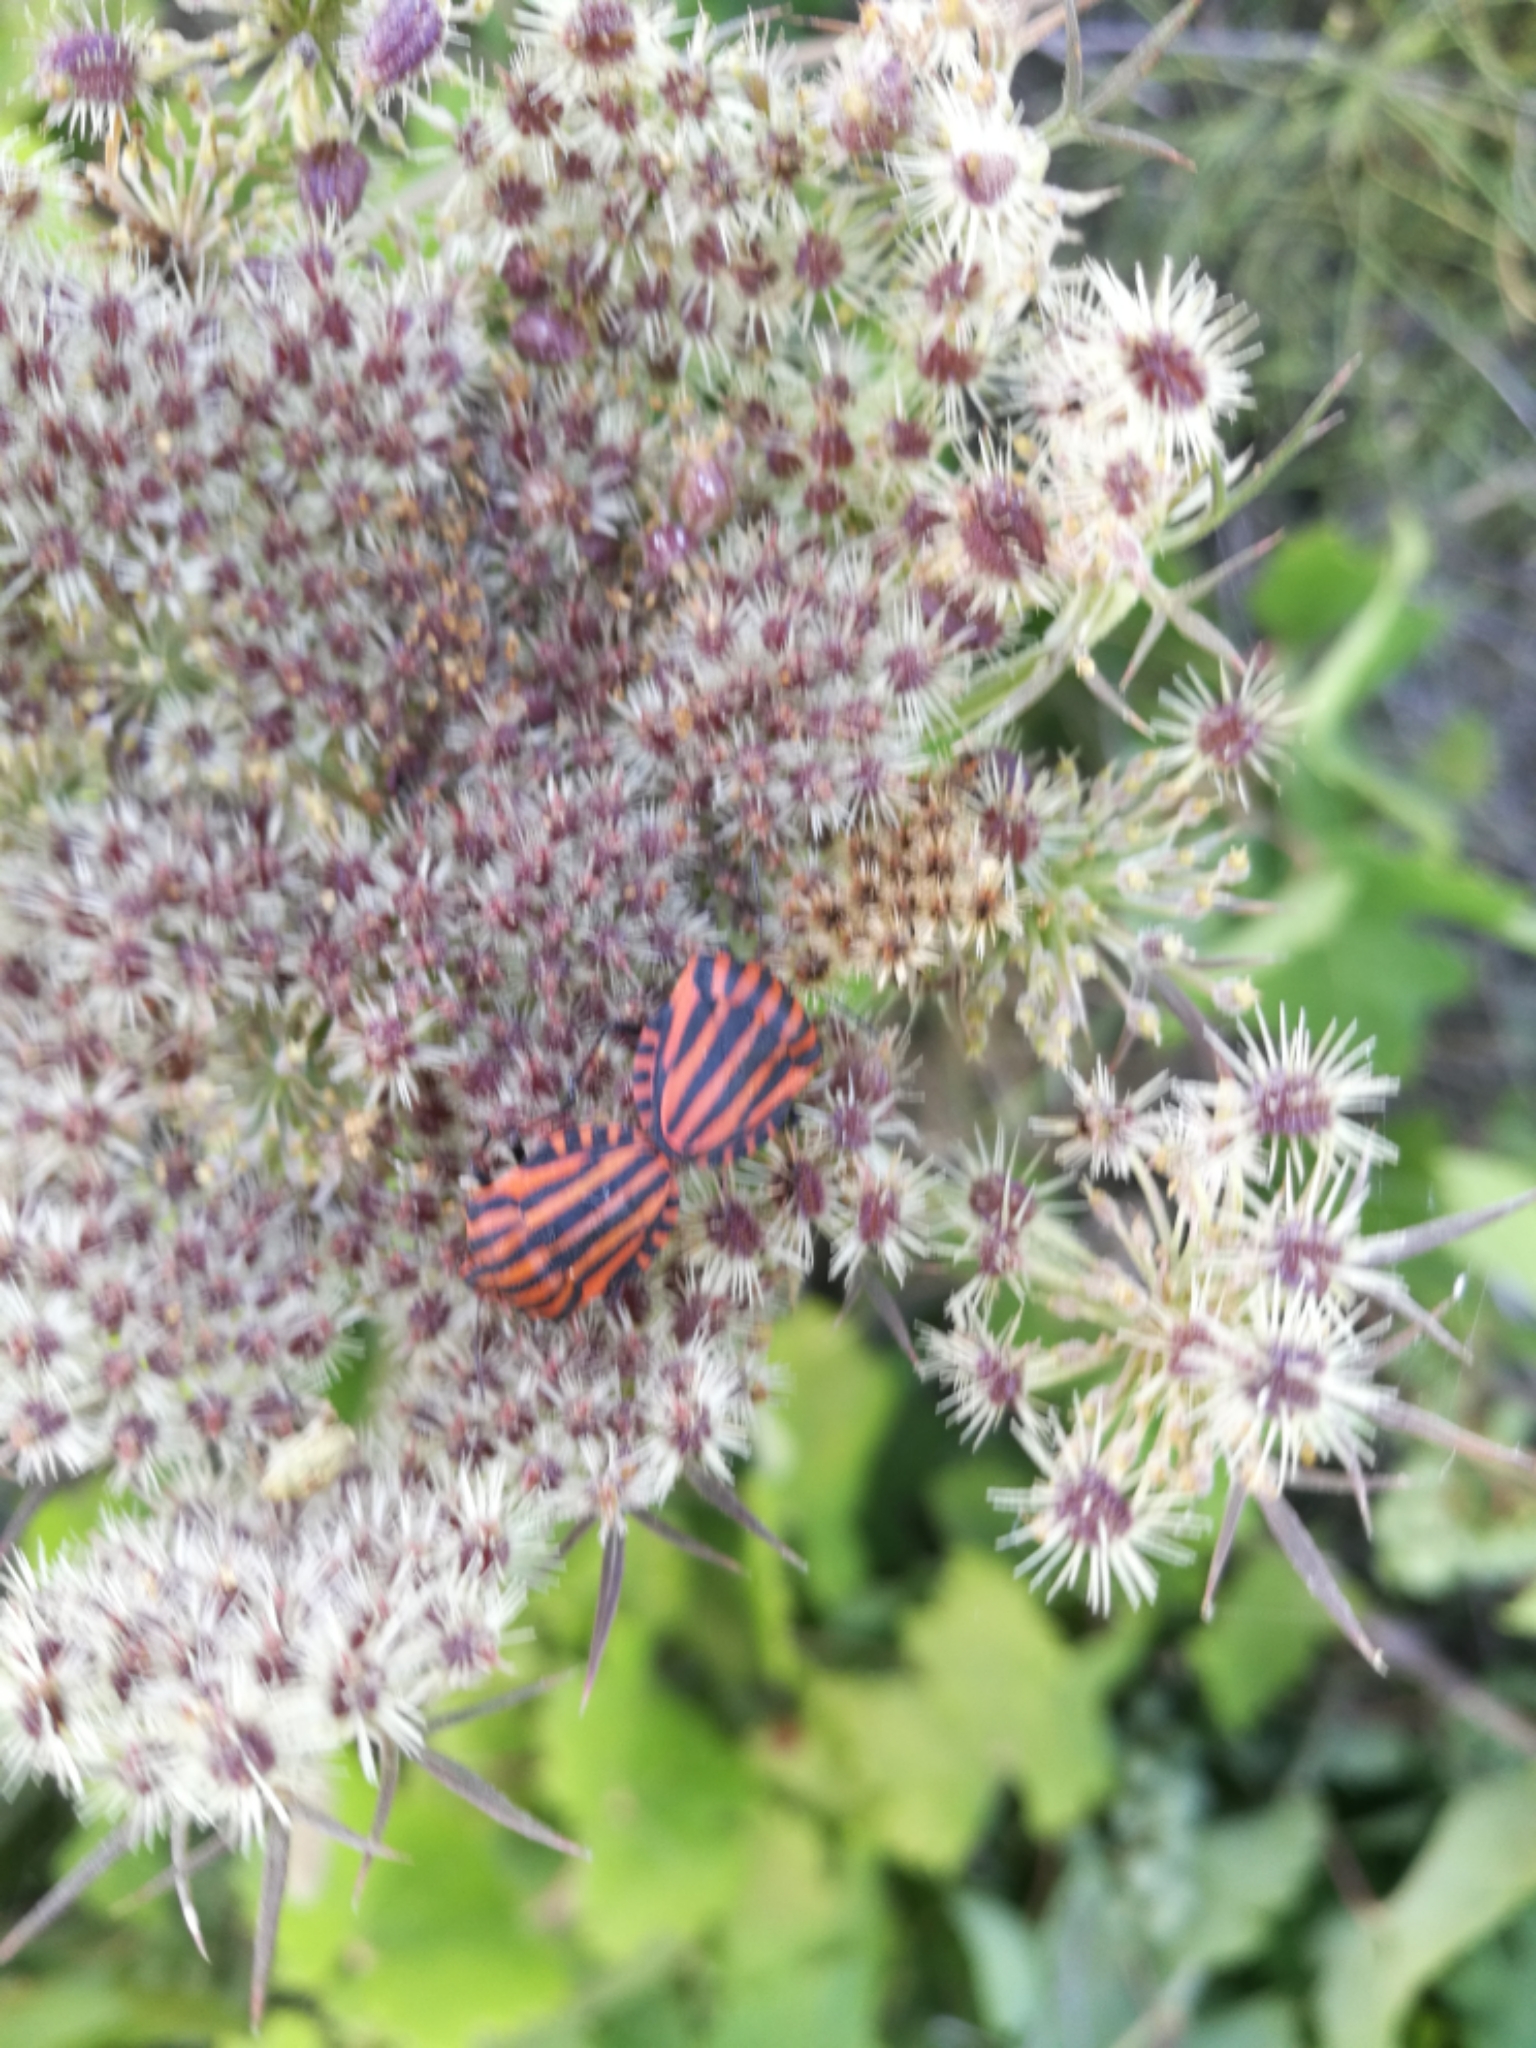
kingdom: Animalia
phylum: Arthropoda
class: Insecta
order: Hemiptera
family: Pentatomidae
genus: Graphosoma
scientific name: Graphosoma italicum
